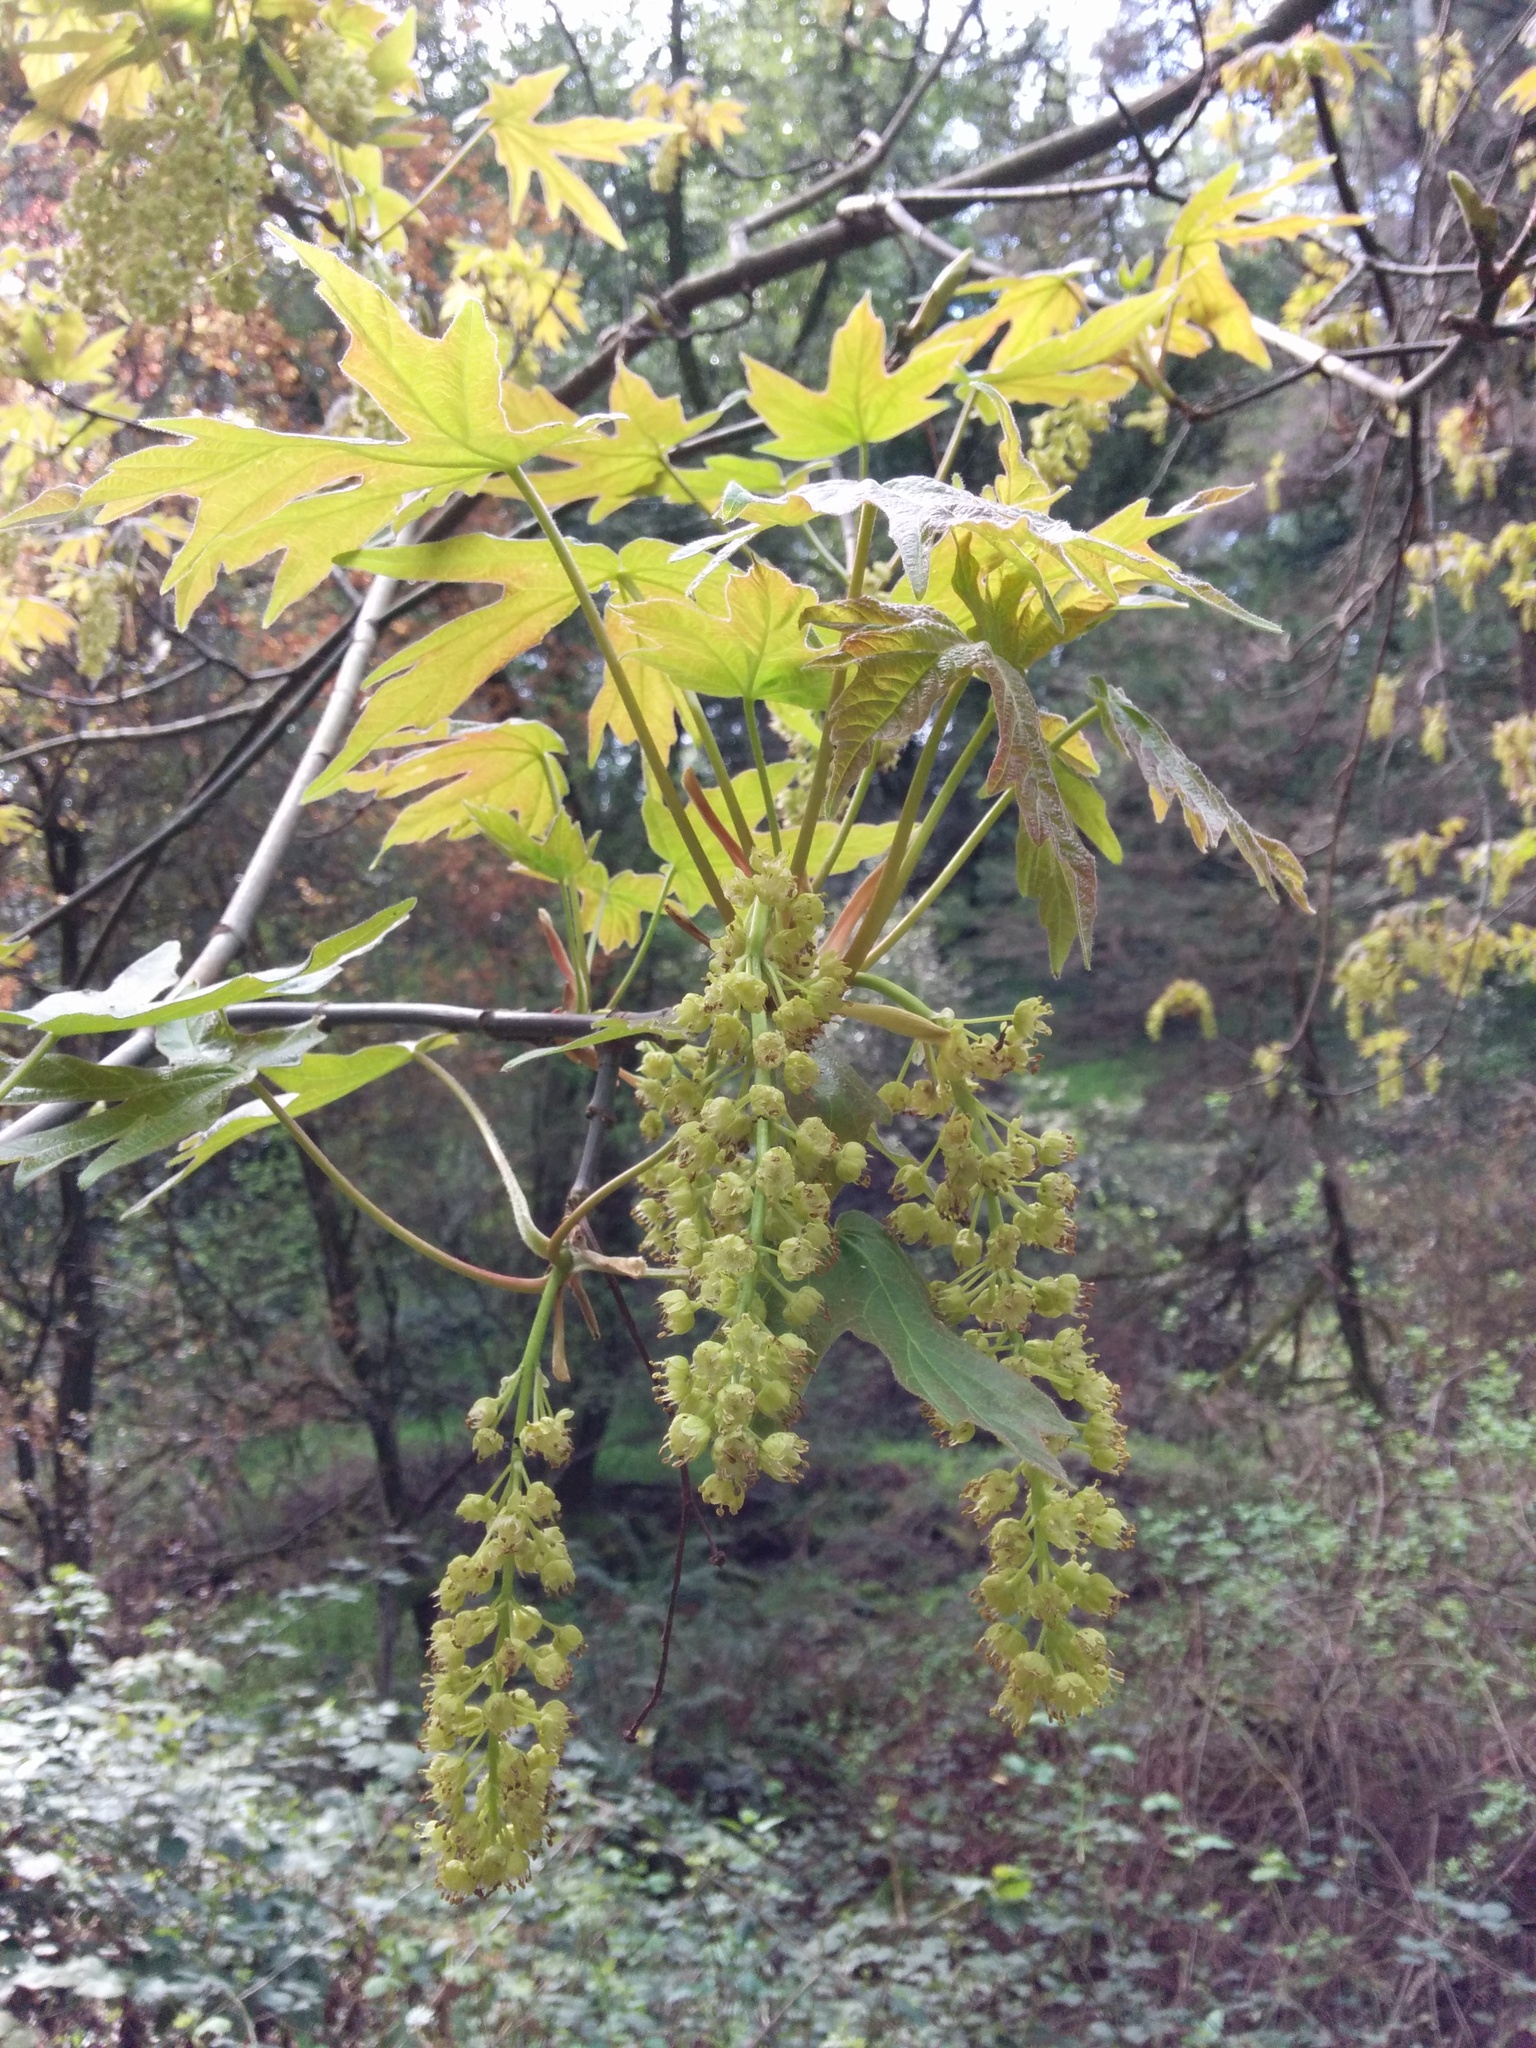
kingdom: Plantae
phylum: Tracheophyta
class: Magnoliopsida
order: Sapindales
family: Sapindaceae
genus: Acer
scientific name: Acer macrophyllum
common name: Oregon maple
